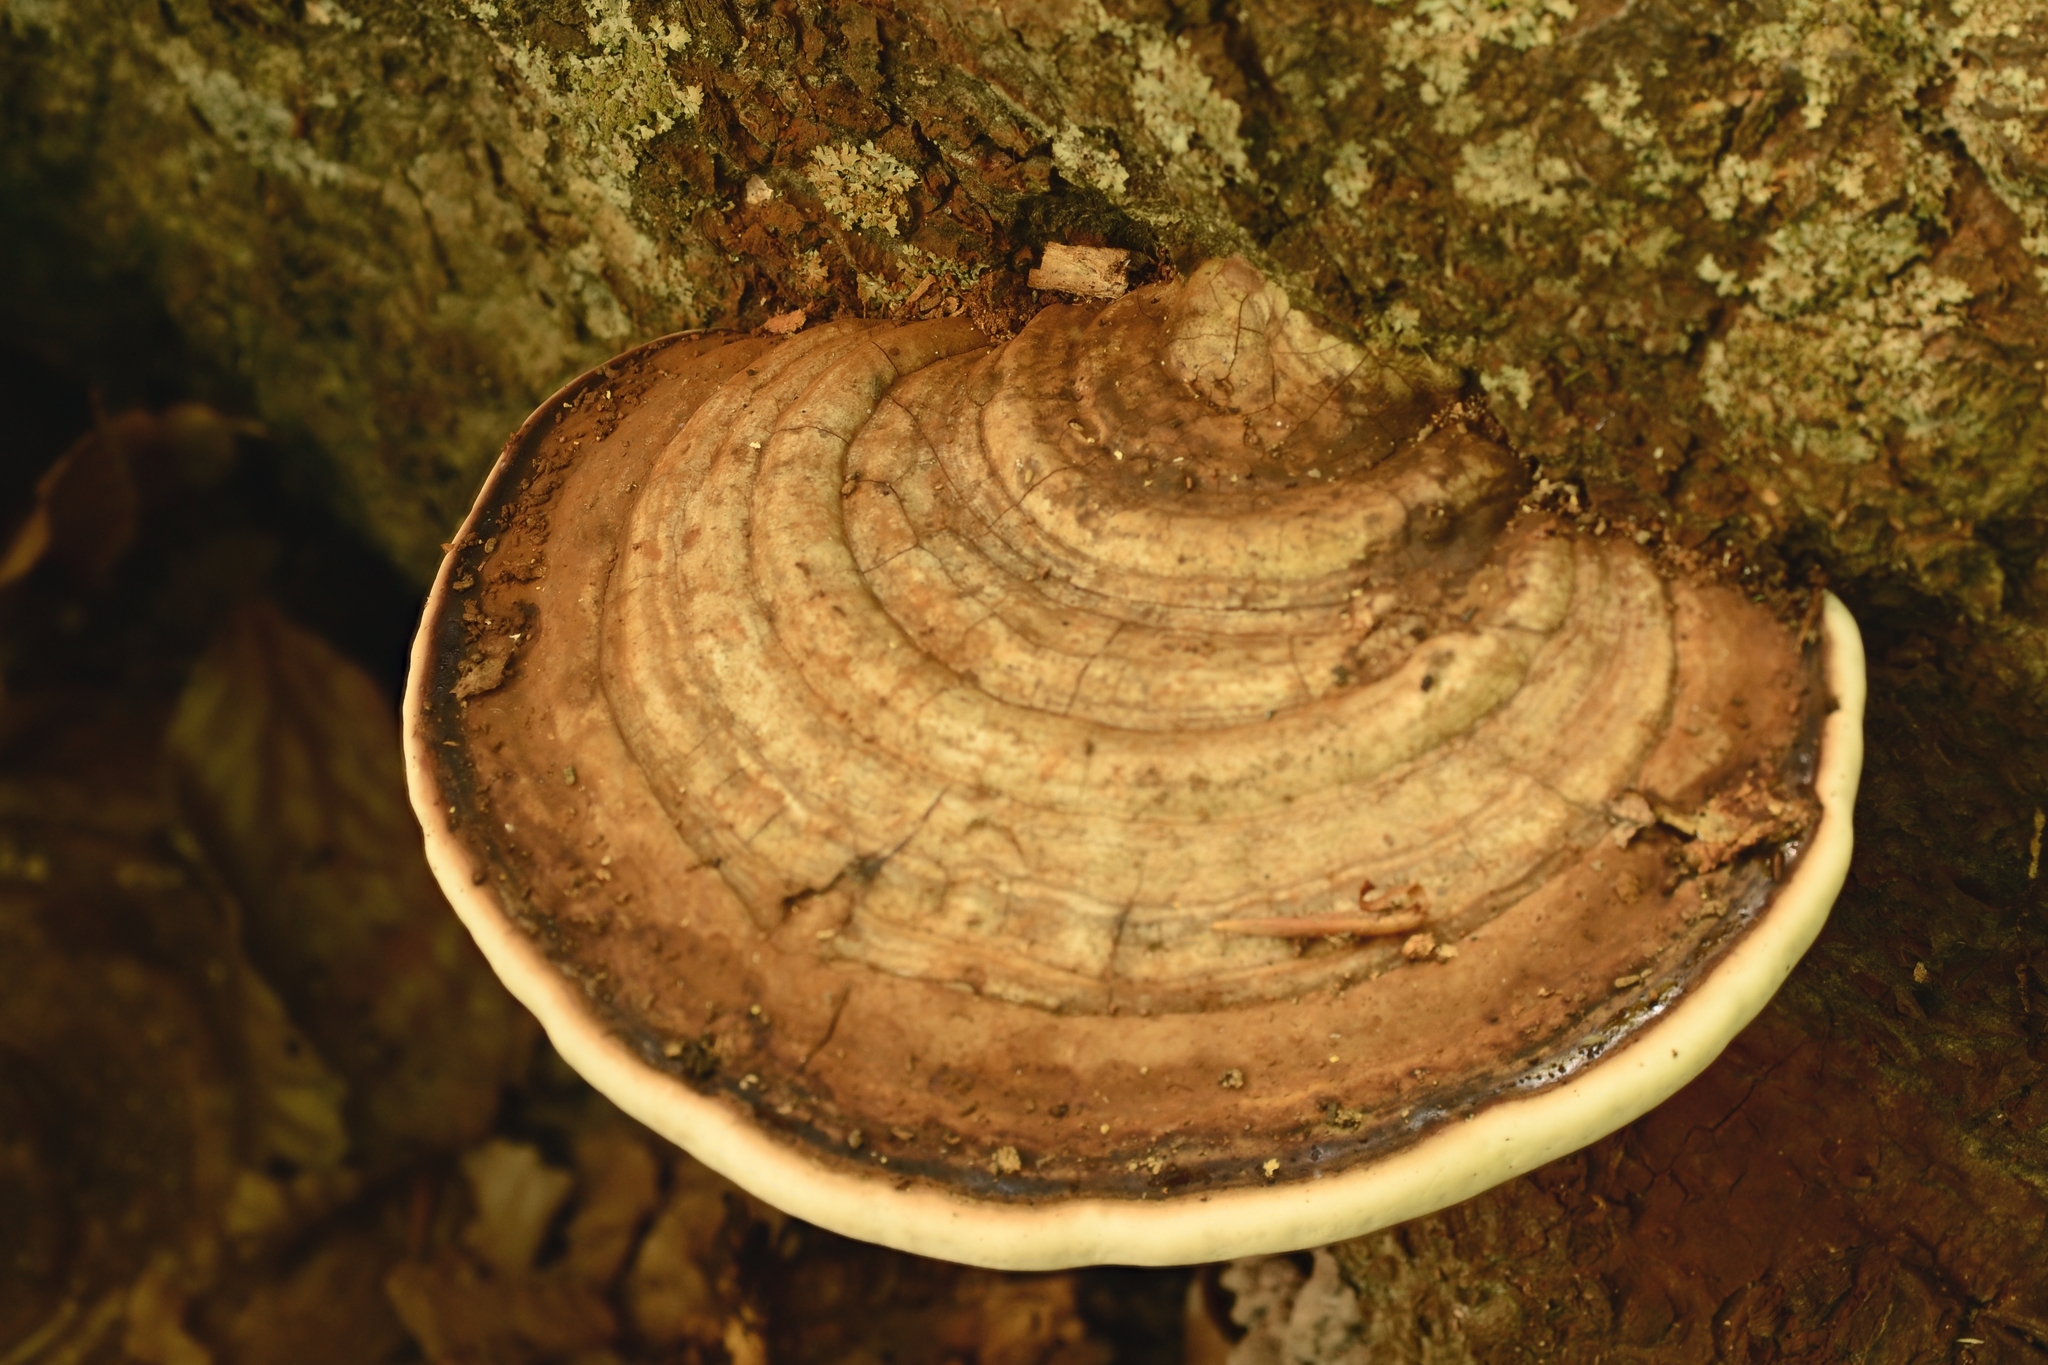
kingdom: Fungi
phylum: Basidiomycota
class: Agaricomycetes
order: Polyporales
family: Polyporaceae
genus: Ganoderma
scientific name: Ganoderma applanatum
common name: Artist's bracket
